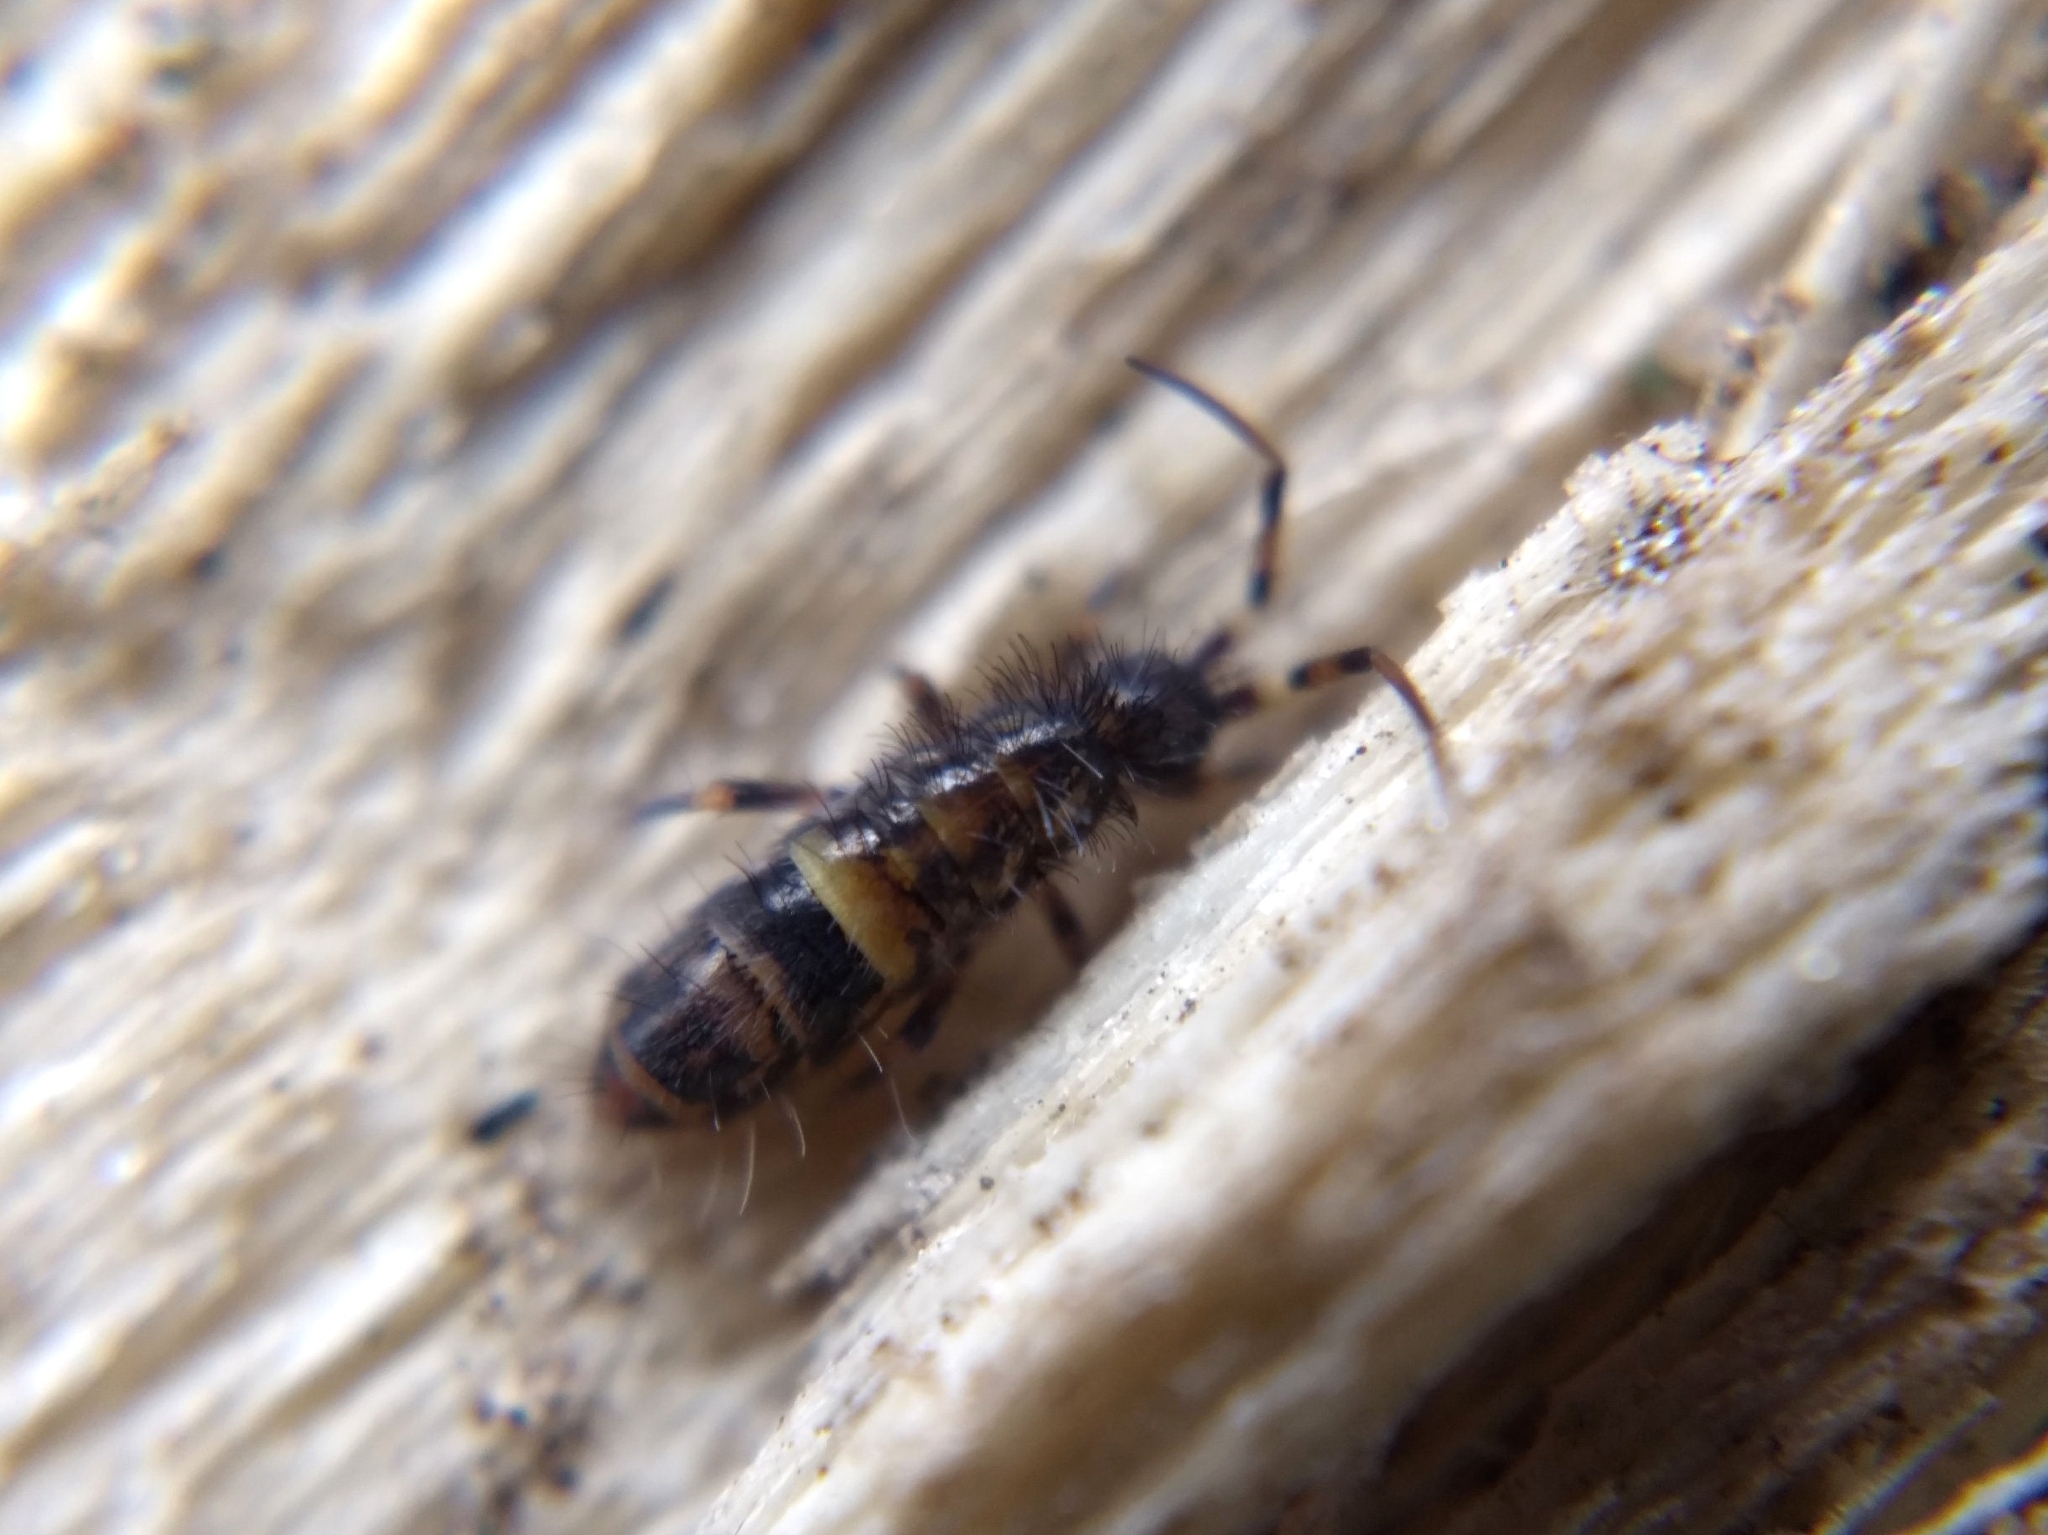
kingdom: Animalia
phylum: Arthropoda
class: Collembola
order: Entomobryomorpha
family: Orchesellidae
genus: Orchesella
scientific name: Orchesella cincta
